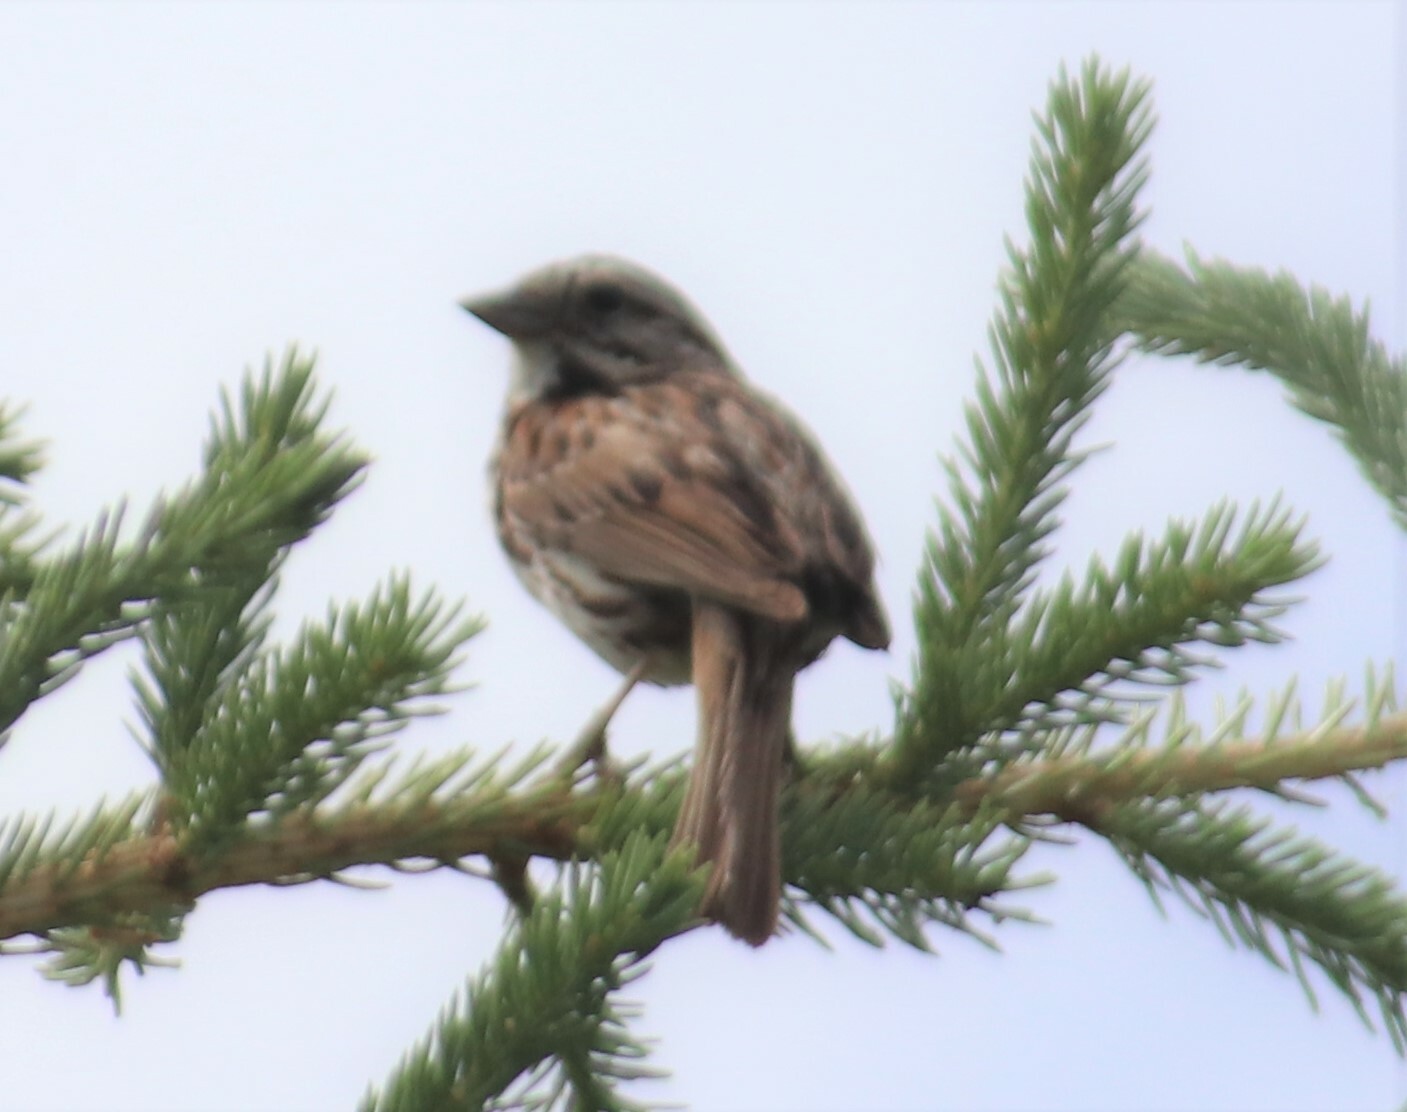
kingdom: Animalia
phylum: Chordata
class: Aves
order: Passeriformes
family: Passerellidae
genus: Melospiza
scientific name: Melospiza melodia
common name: Song sparrow
